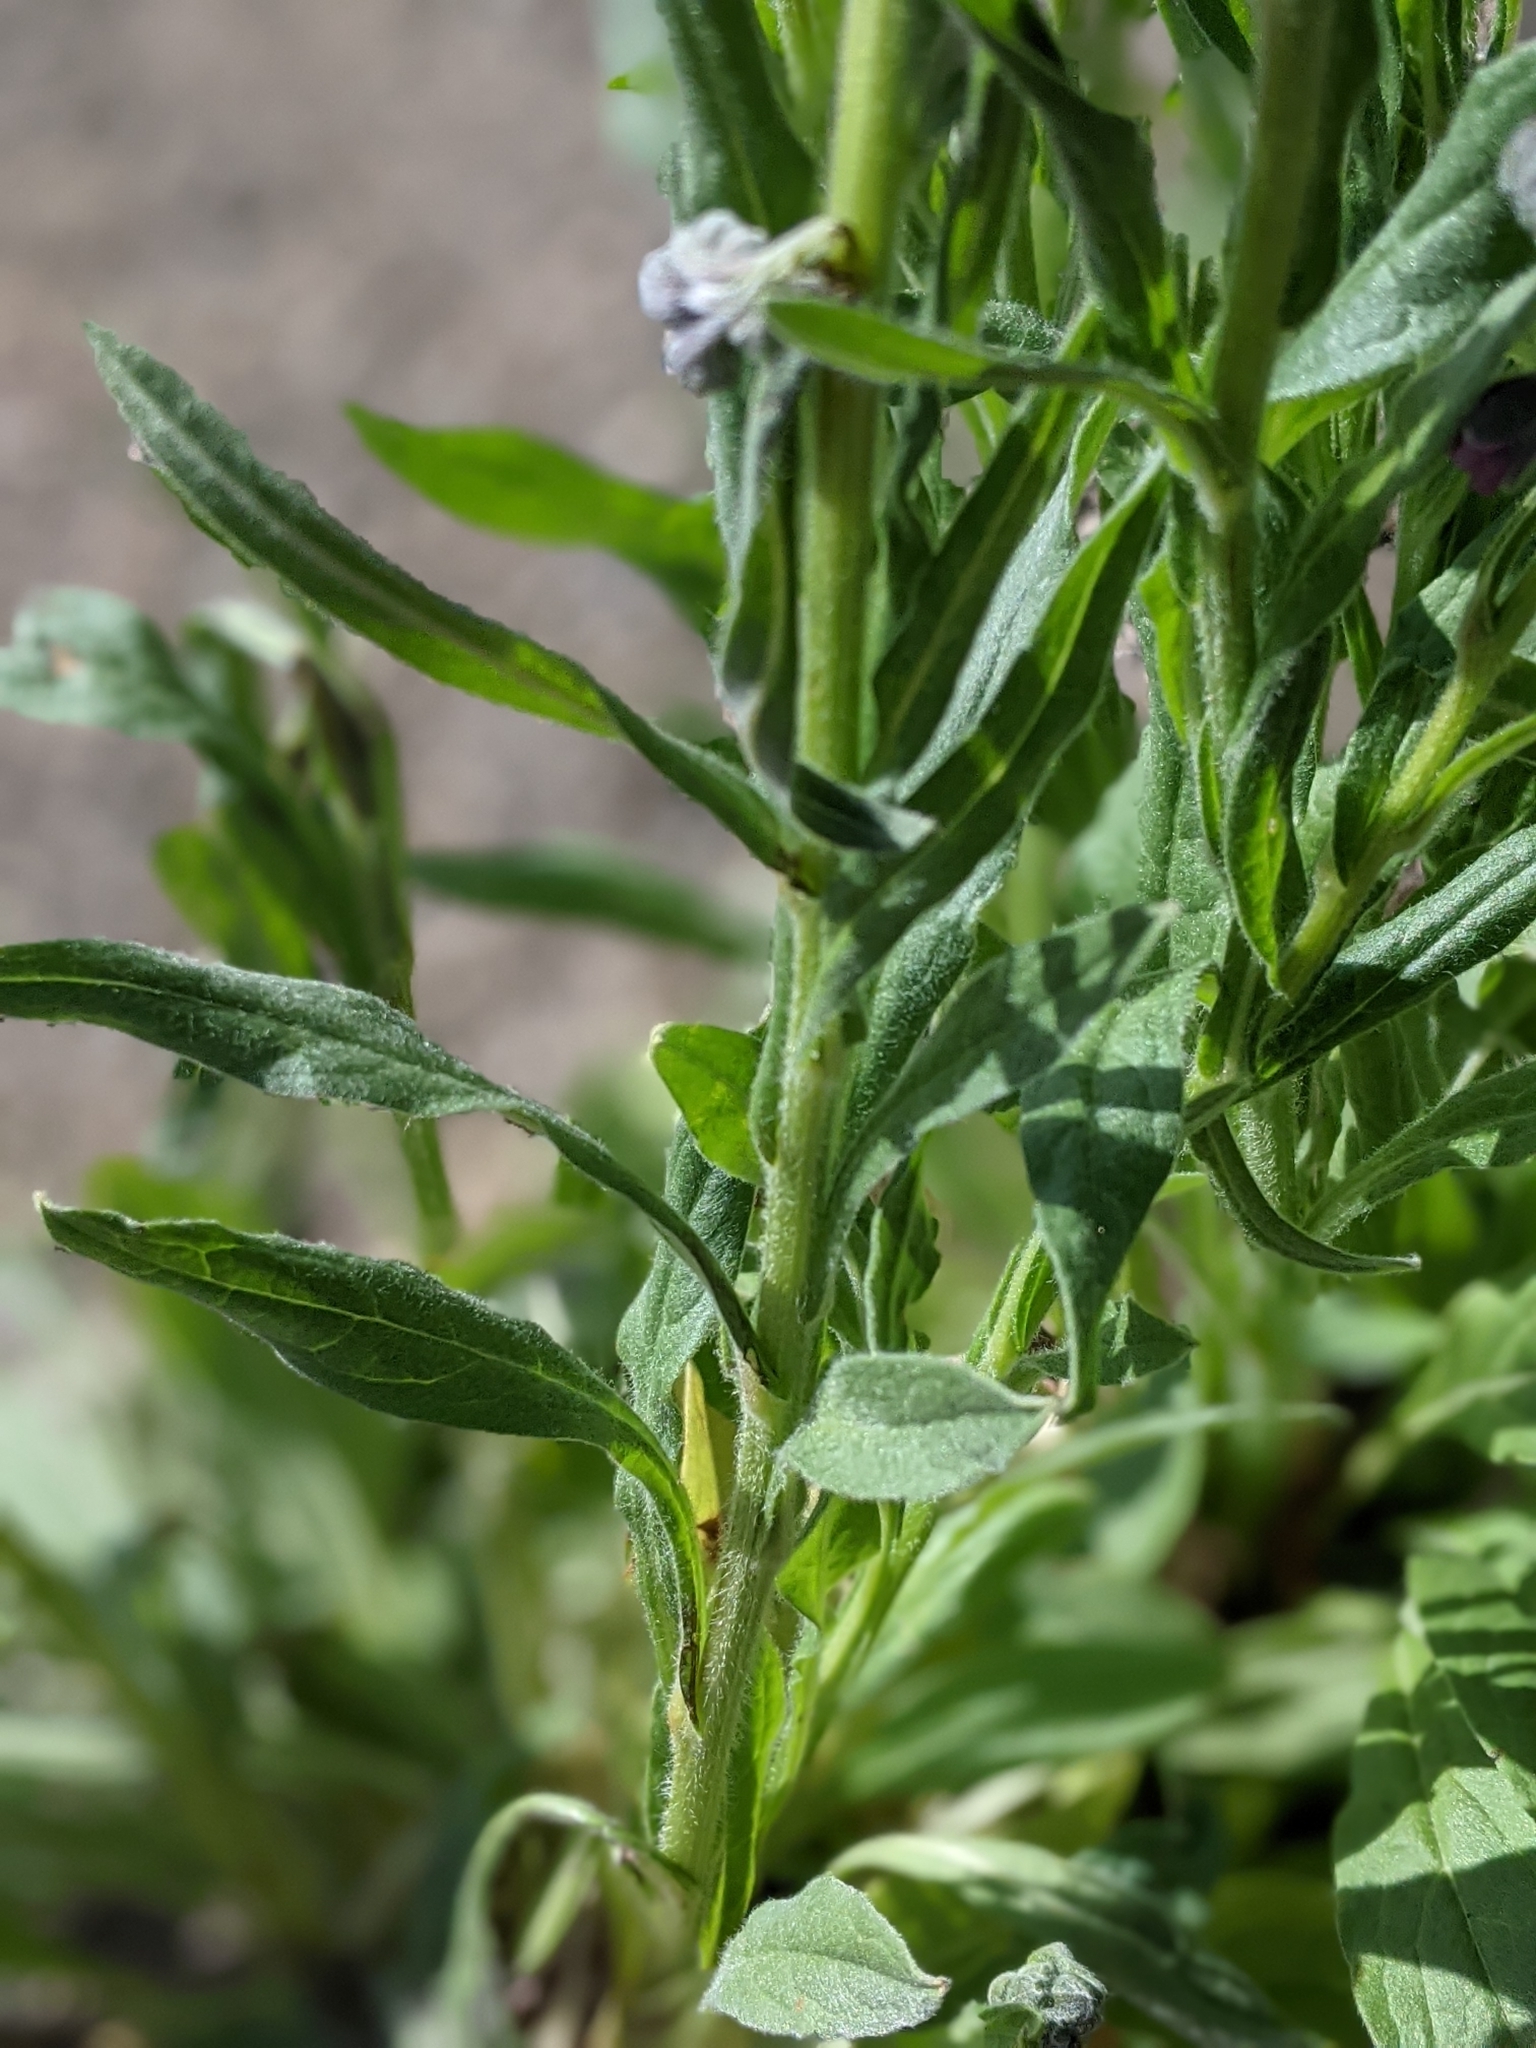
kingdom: Plantae
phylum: Tracheophyta
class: Magnoliopsida
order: Boraginales
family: Boraginaceae
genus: Cynoglossum
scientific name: Cynoglossum officinale
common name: Hound's-tongue
